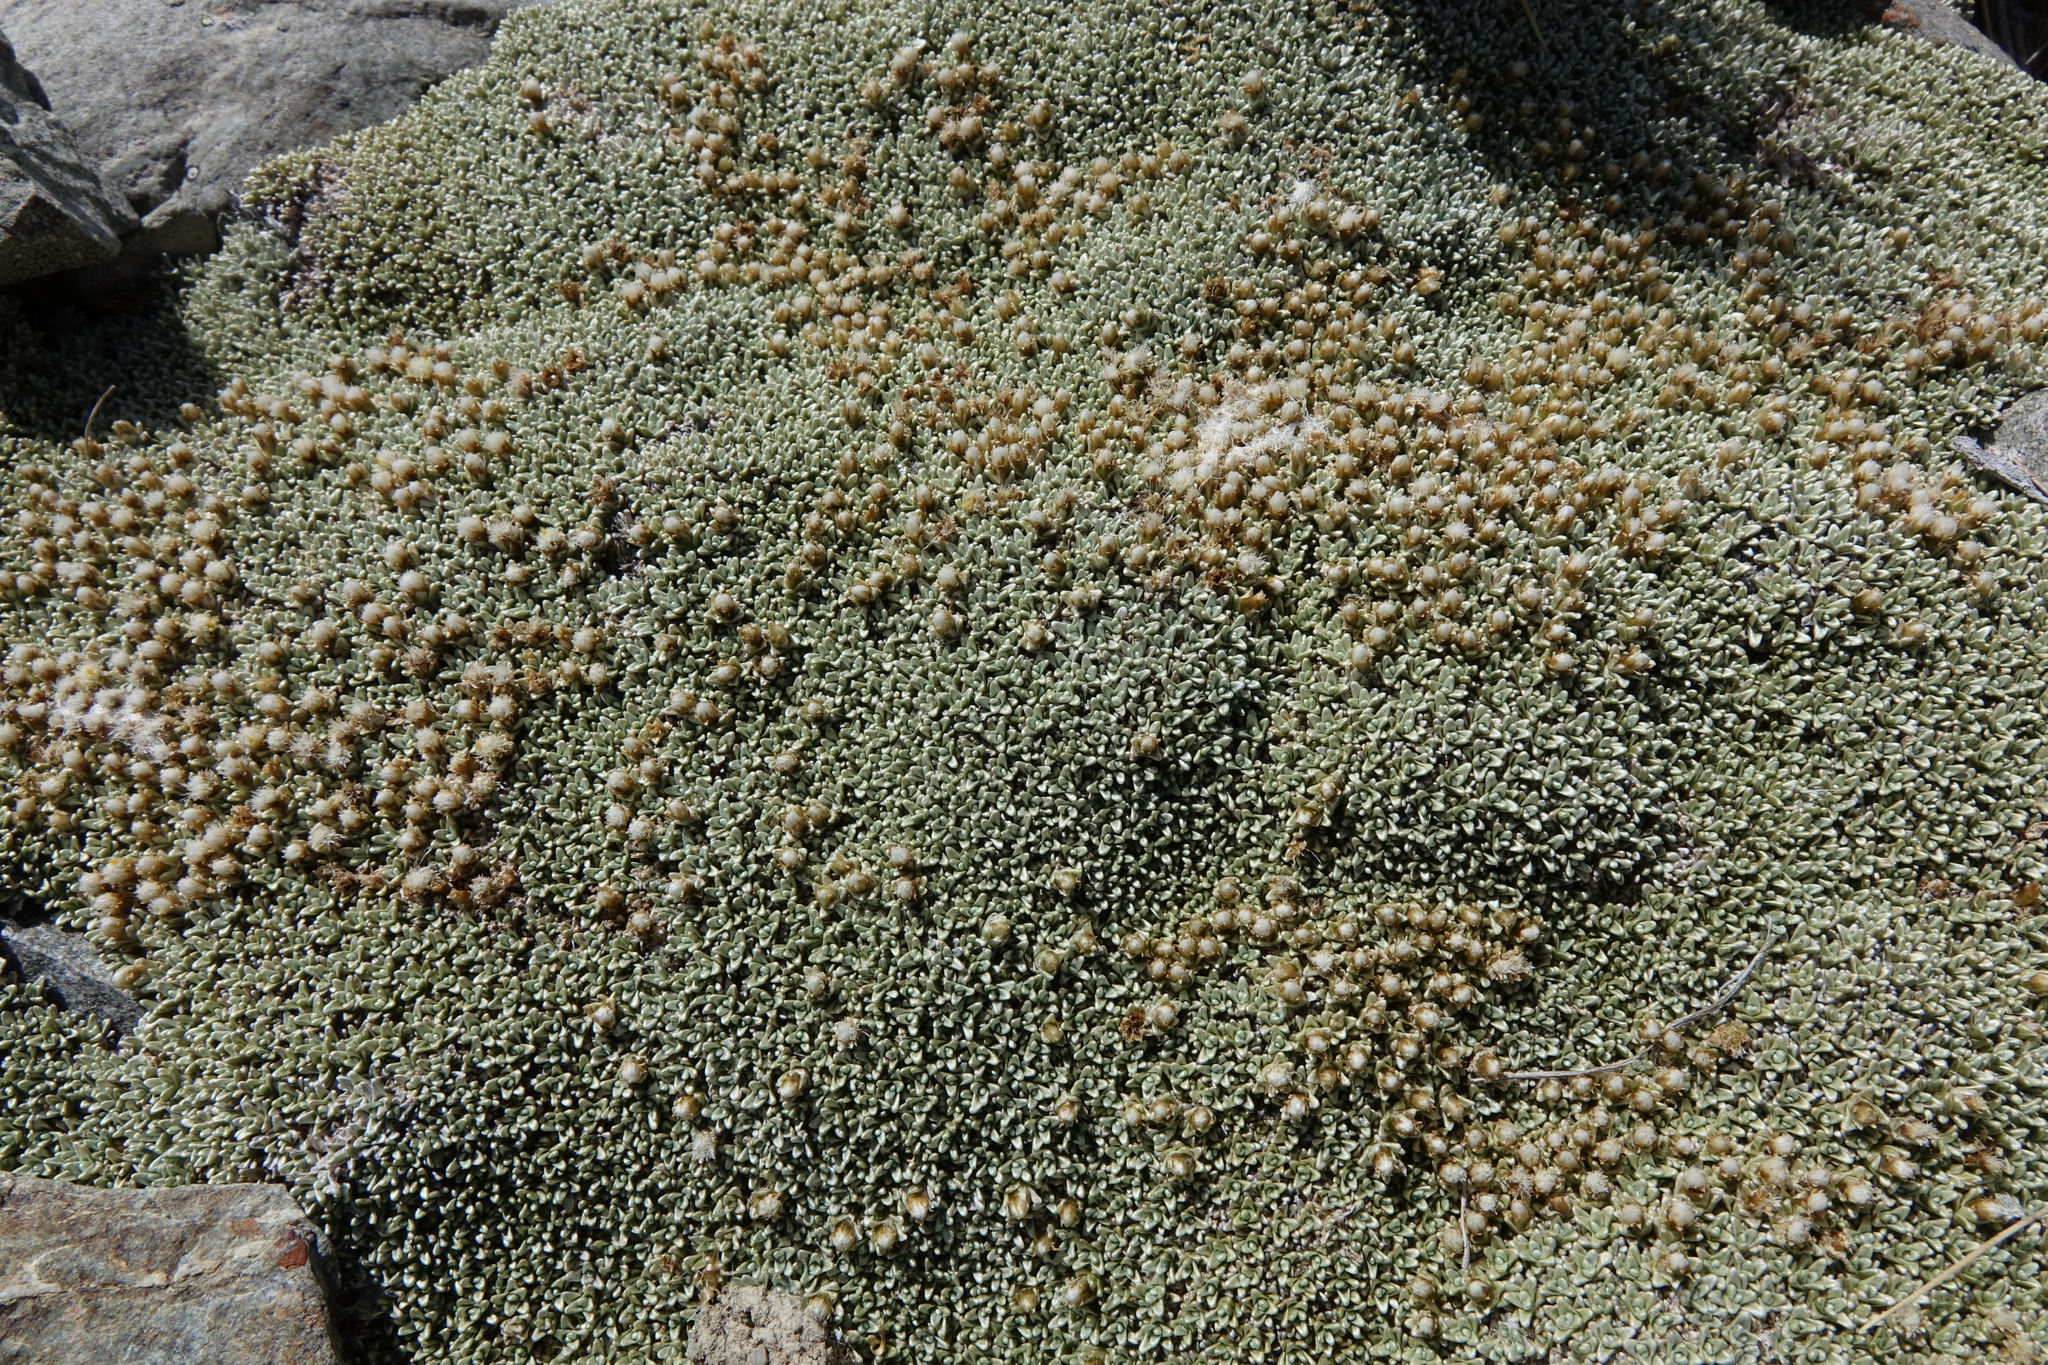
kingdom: Plantae
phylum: Tracheophyta
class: Magnoliopsida
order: Asterales
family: Asteraceae
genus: Raoulia
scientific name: Raoulia hectorii
